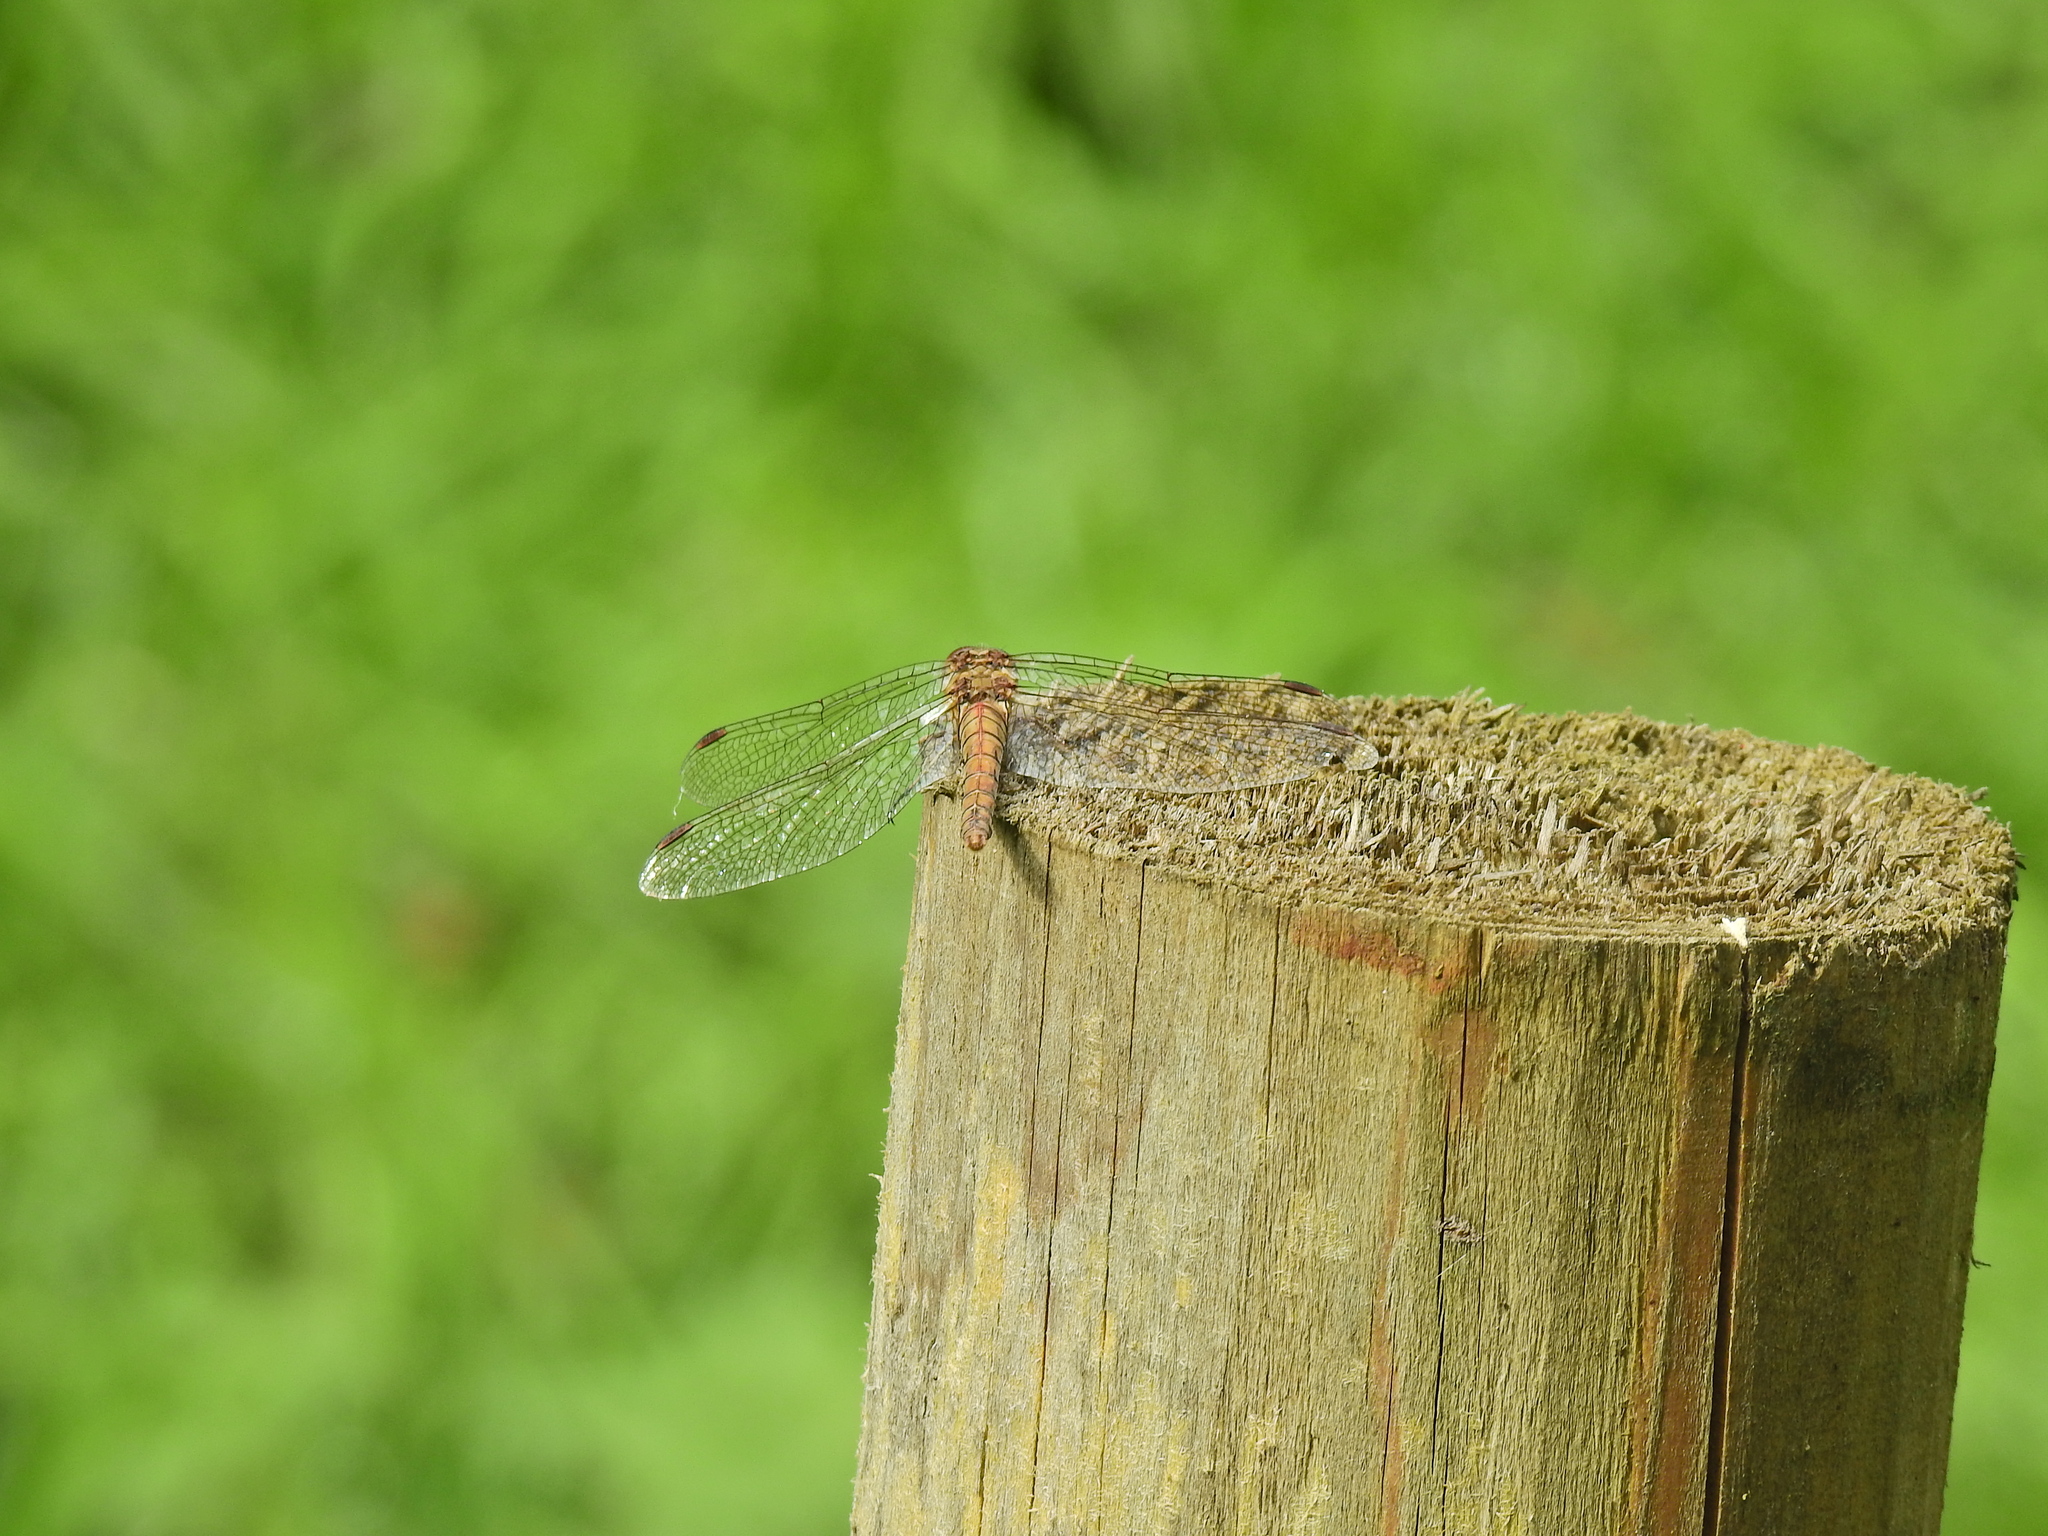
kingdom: Animalia
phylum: Arthropoda
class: Insecta
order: Odonata
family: Libellulidae
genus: Sympetrum
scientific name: Sympetrum striolatum
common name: Common darter
